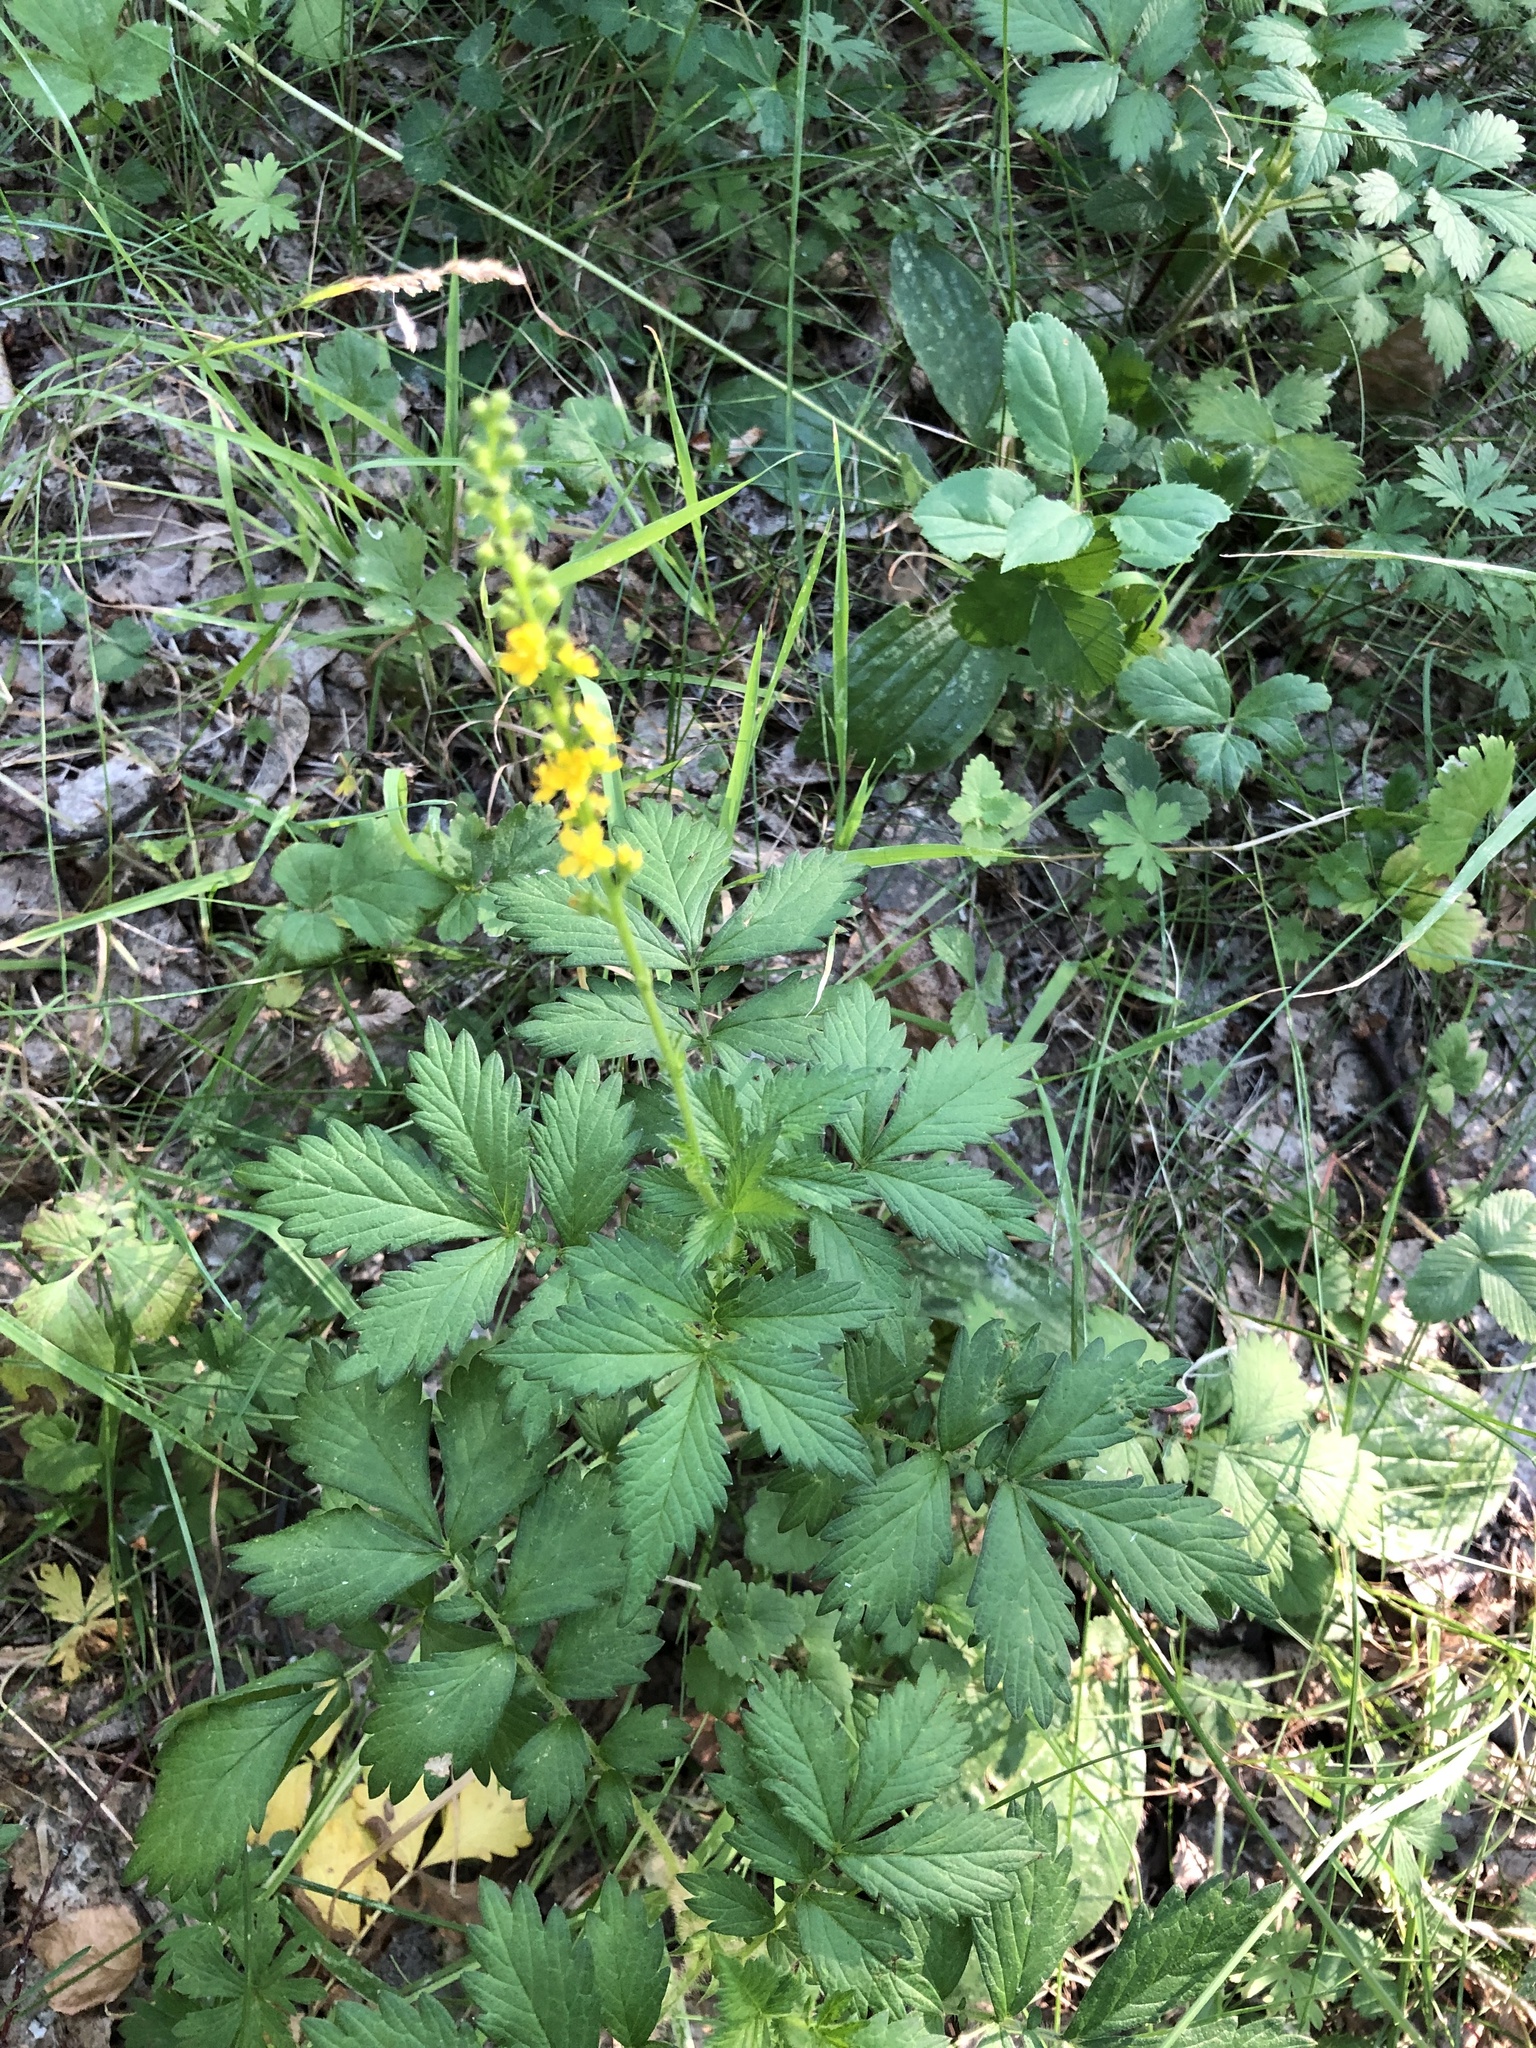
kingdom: Plantae
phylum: Tracheophyta
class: Magnoliopsida
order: Rosales
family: Rosaceae
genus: Agrimonia
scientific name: Agrimonia pilosa
